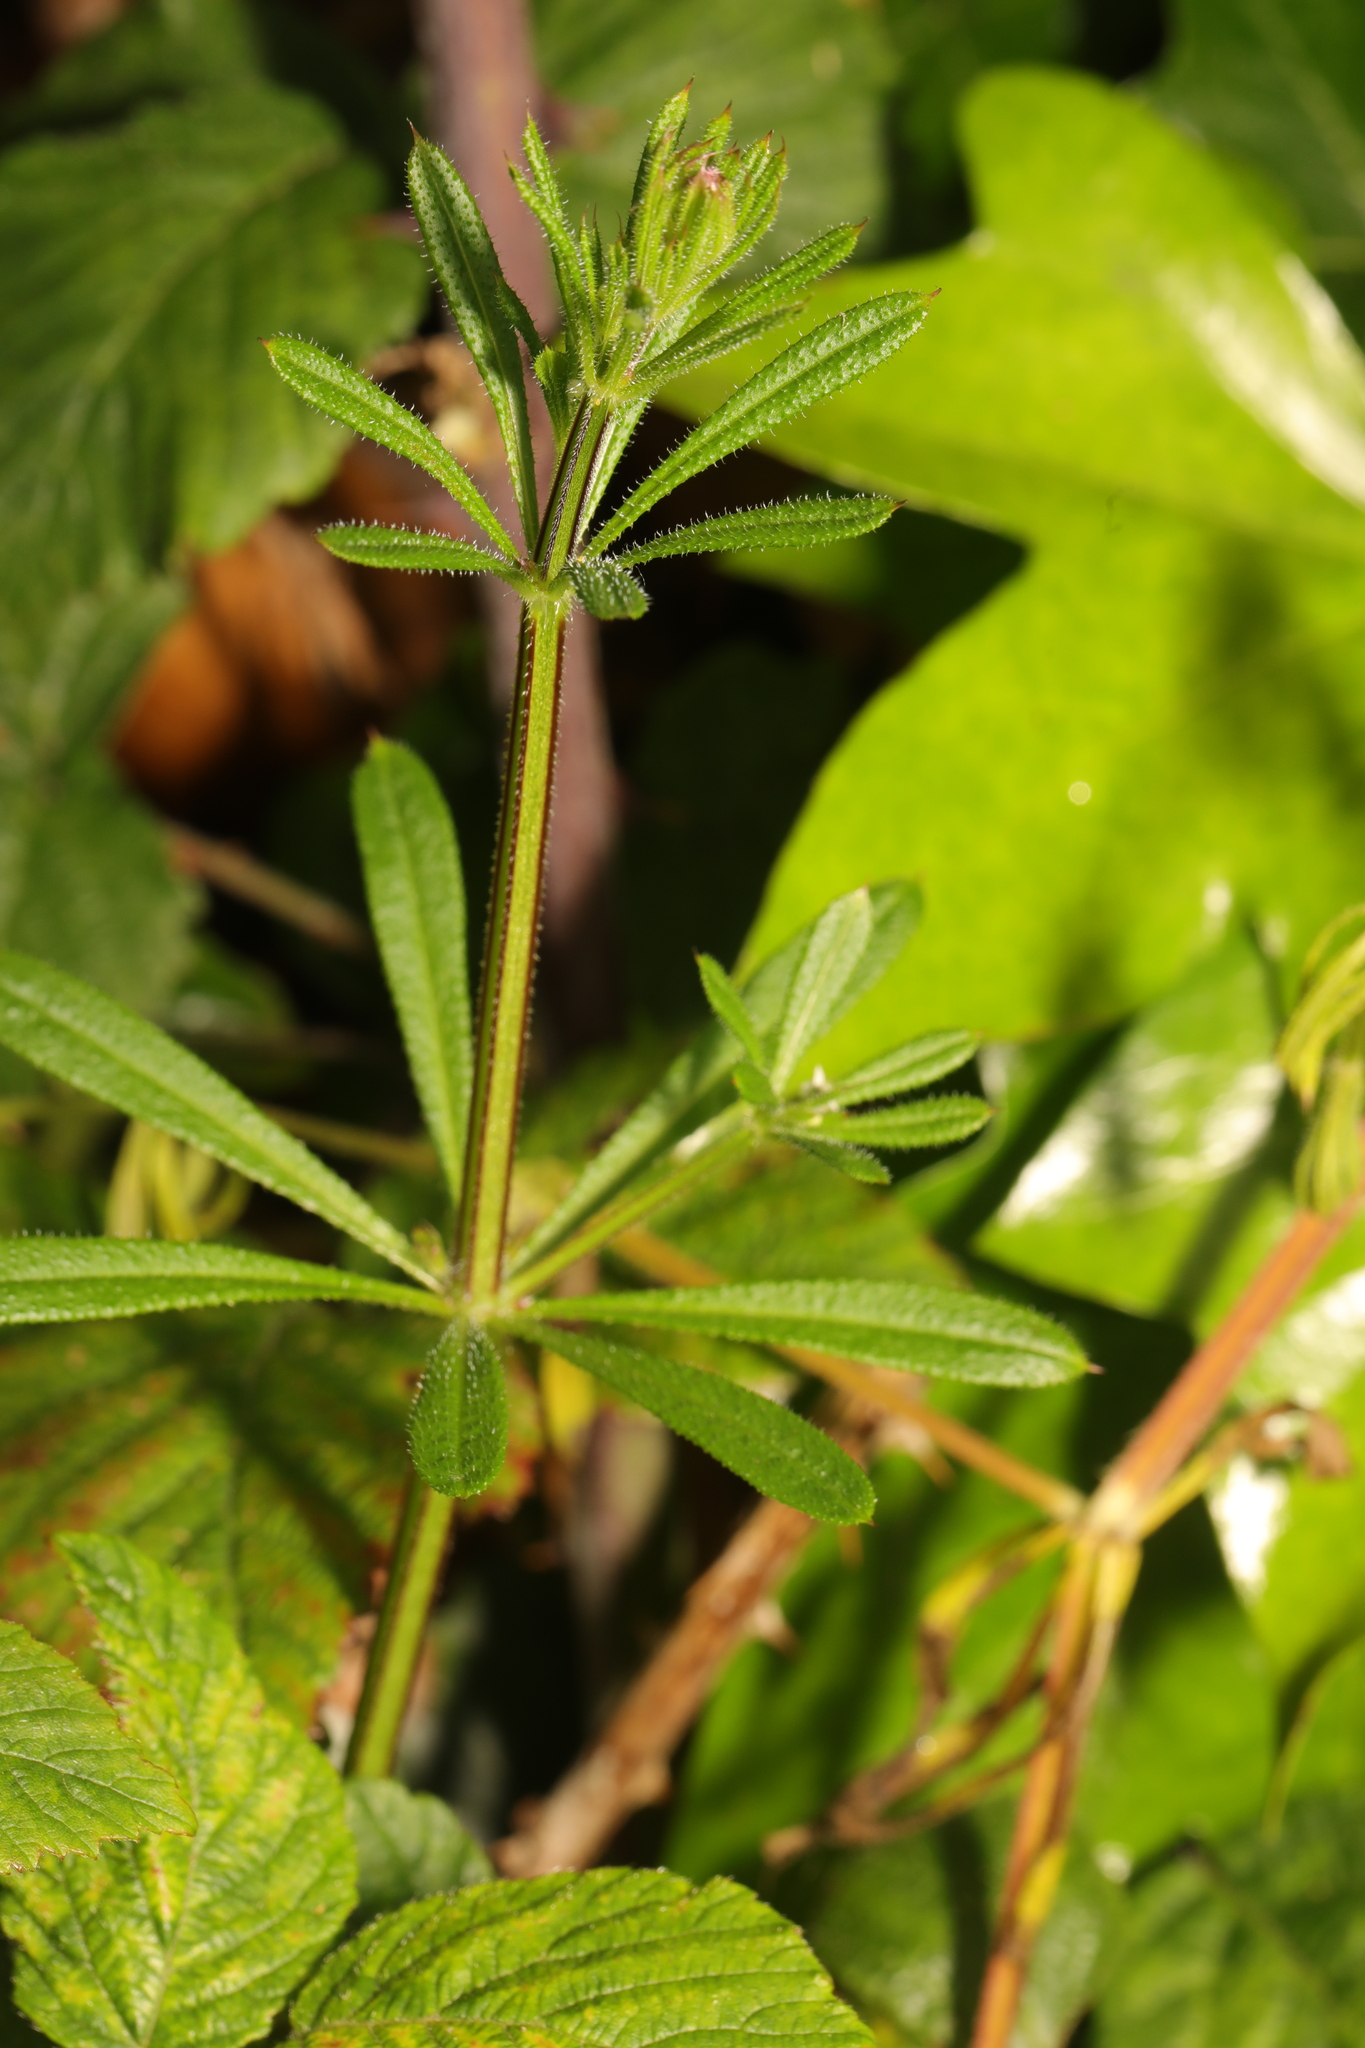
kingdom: Plantae
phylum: Tracheophyta
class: Magnoliopsida
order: Gentianales
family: Rubiaceae
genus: Galium
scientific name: Galium aparine
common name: Cleavers
